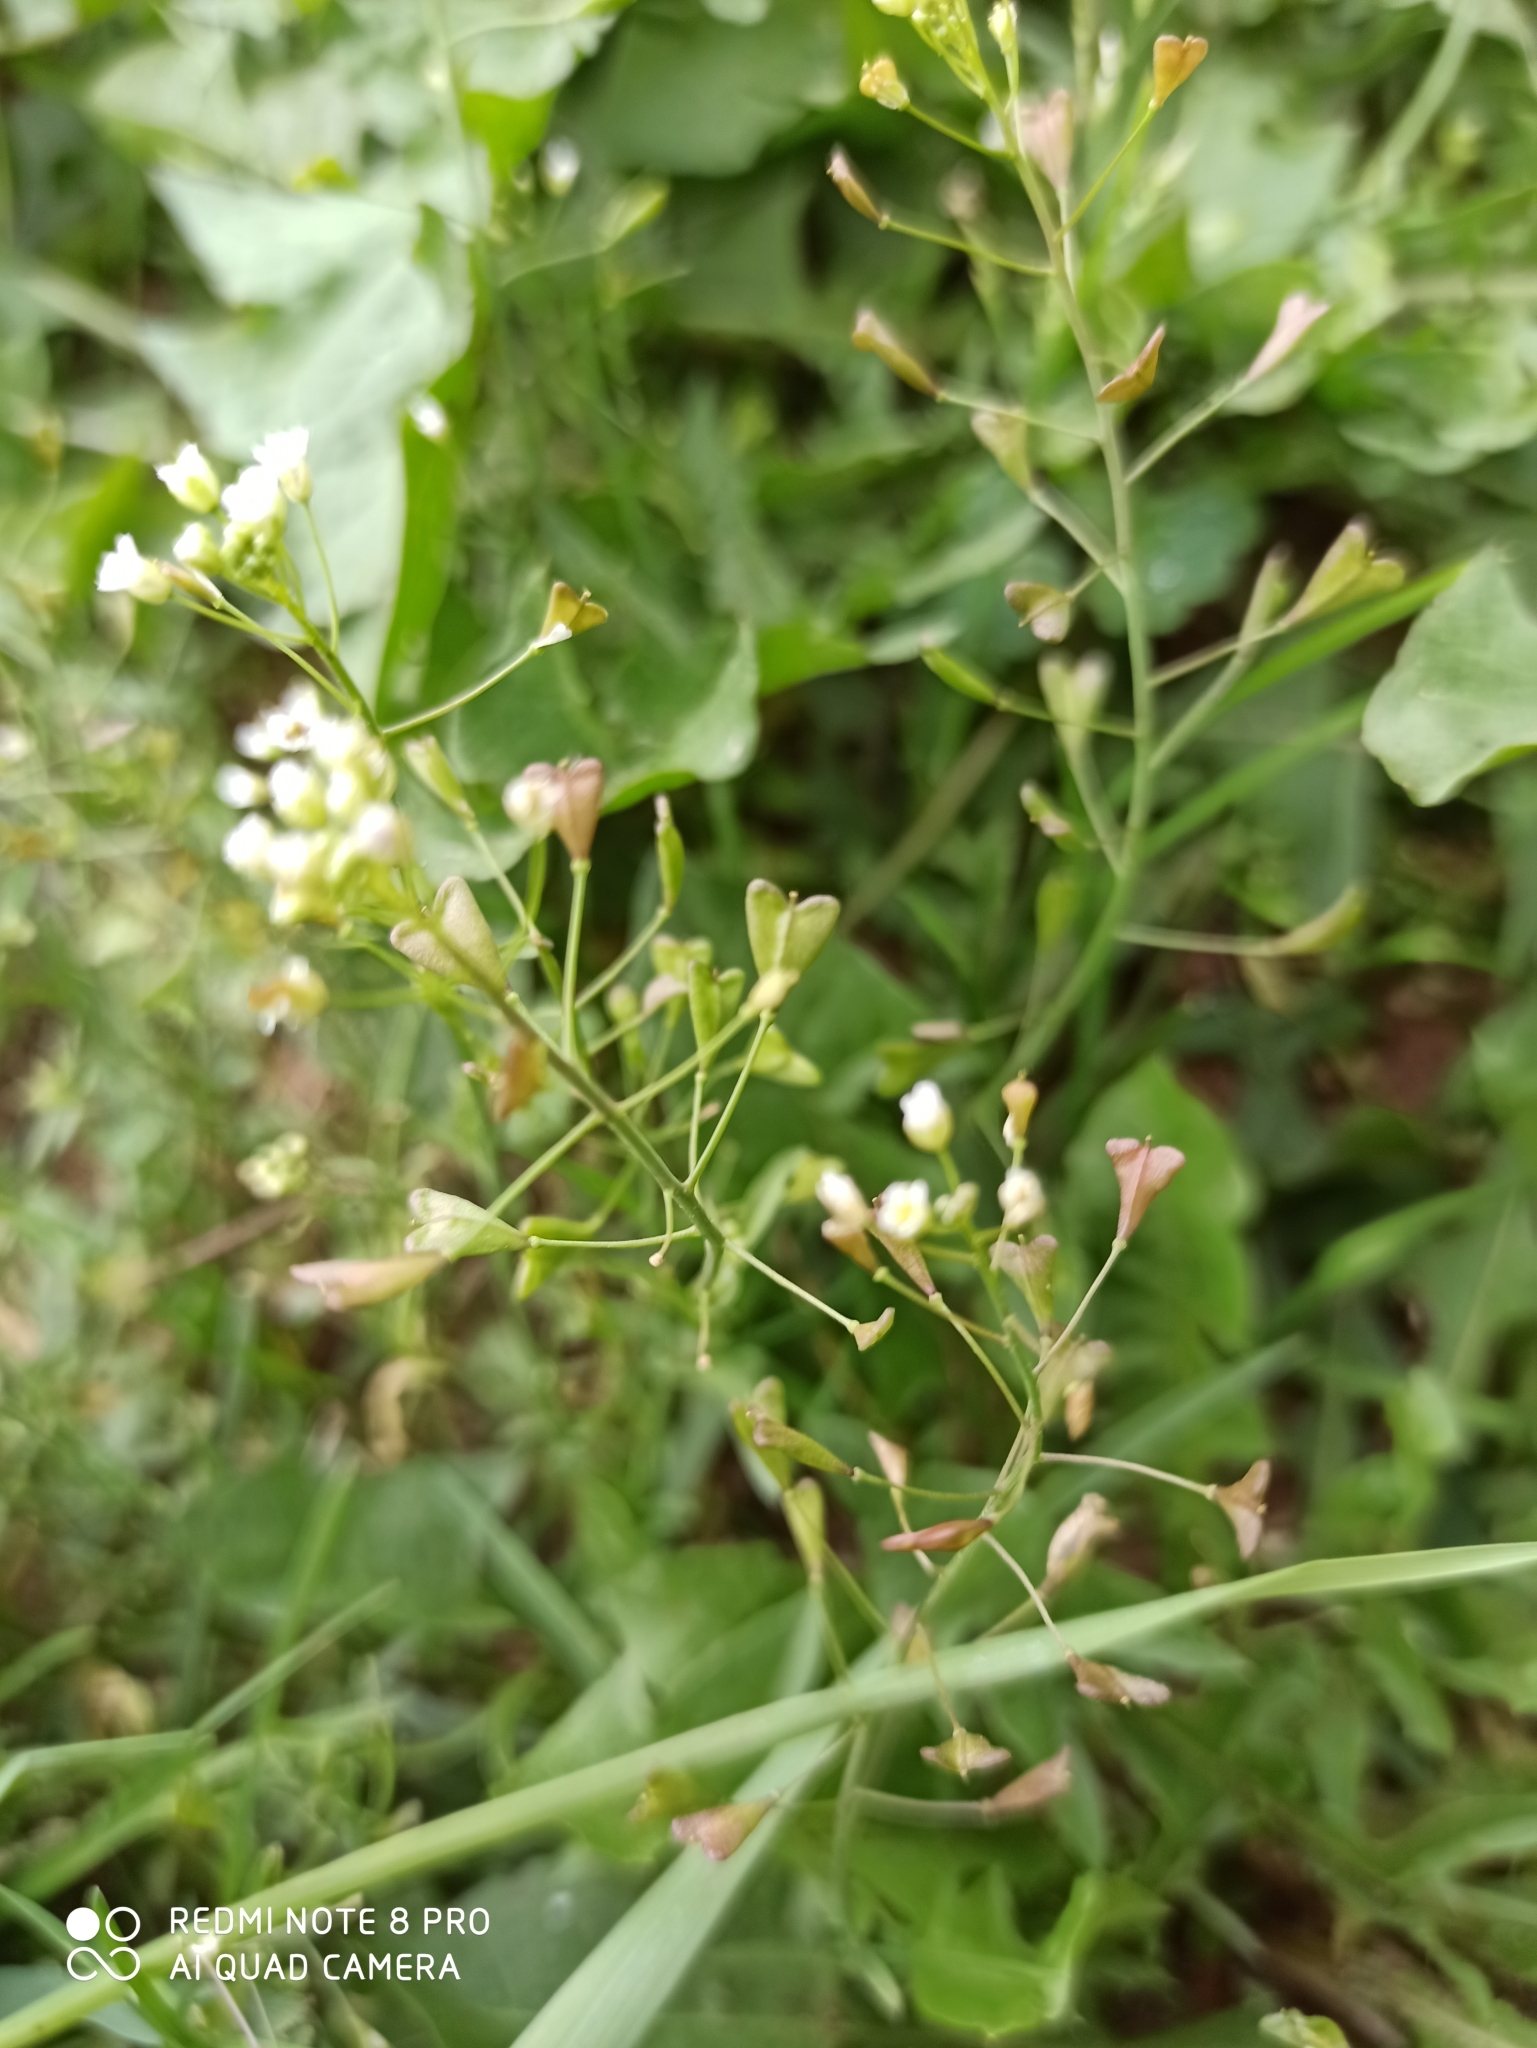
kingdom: Plantae
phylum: Tracheophyta
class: Magnoliopsida
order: Brassicales
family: Brassicaceae
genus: Capsella
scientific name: Capsella bursa-pastoris
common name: Shepherd's purse
